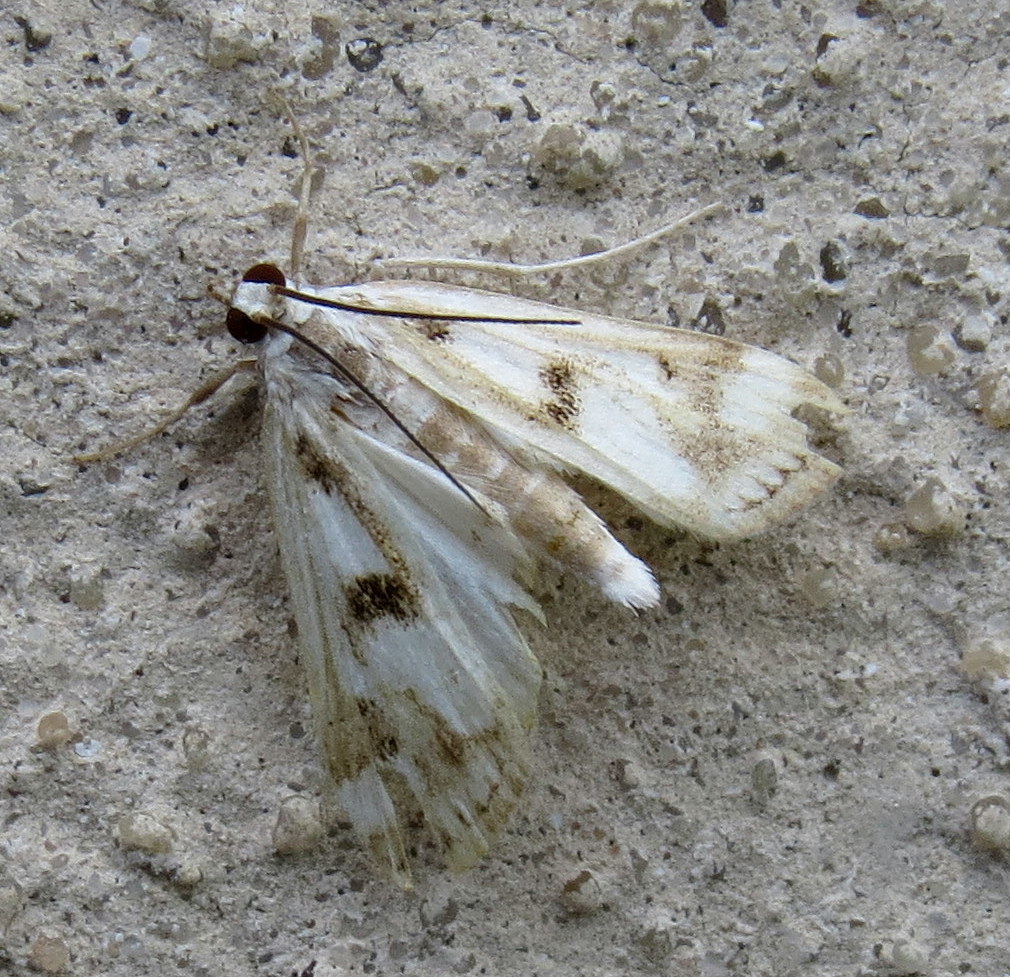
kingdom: Animalia
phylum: Arthropoda
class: Insecta
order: Lepidoptera
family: Crambidae
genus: Parapoynx
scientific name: Parapoynx maculalis
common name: Polymorphic pondweed moth
